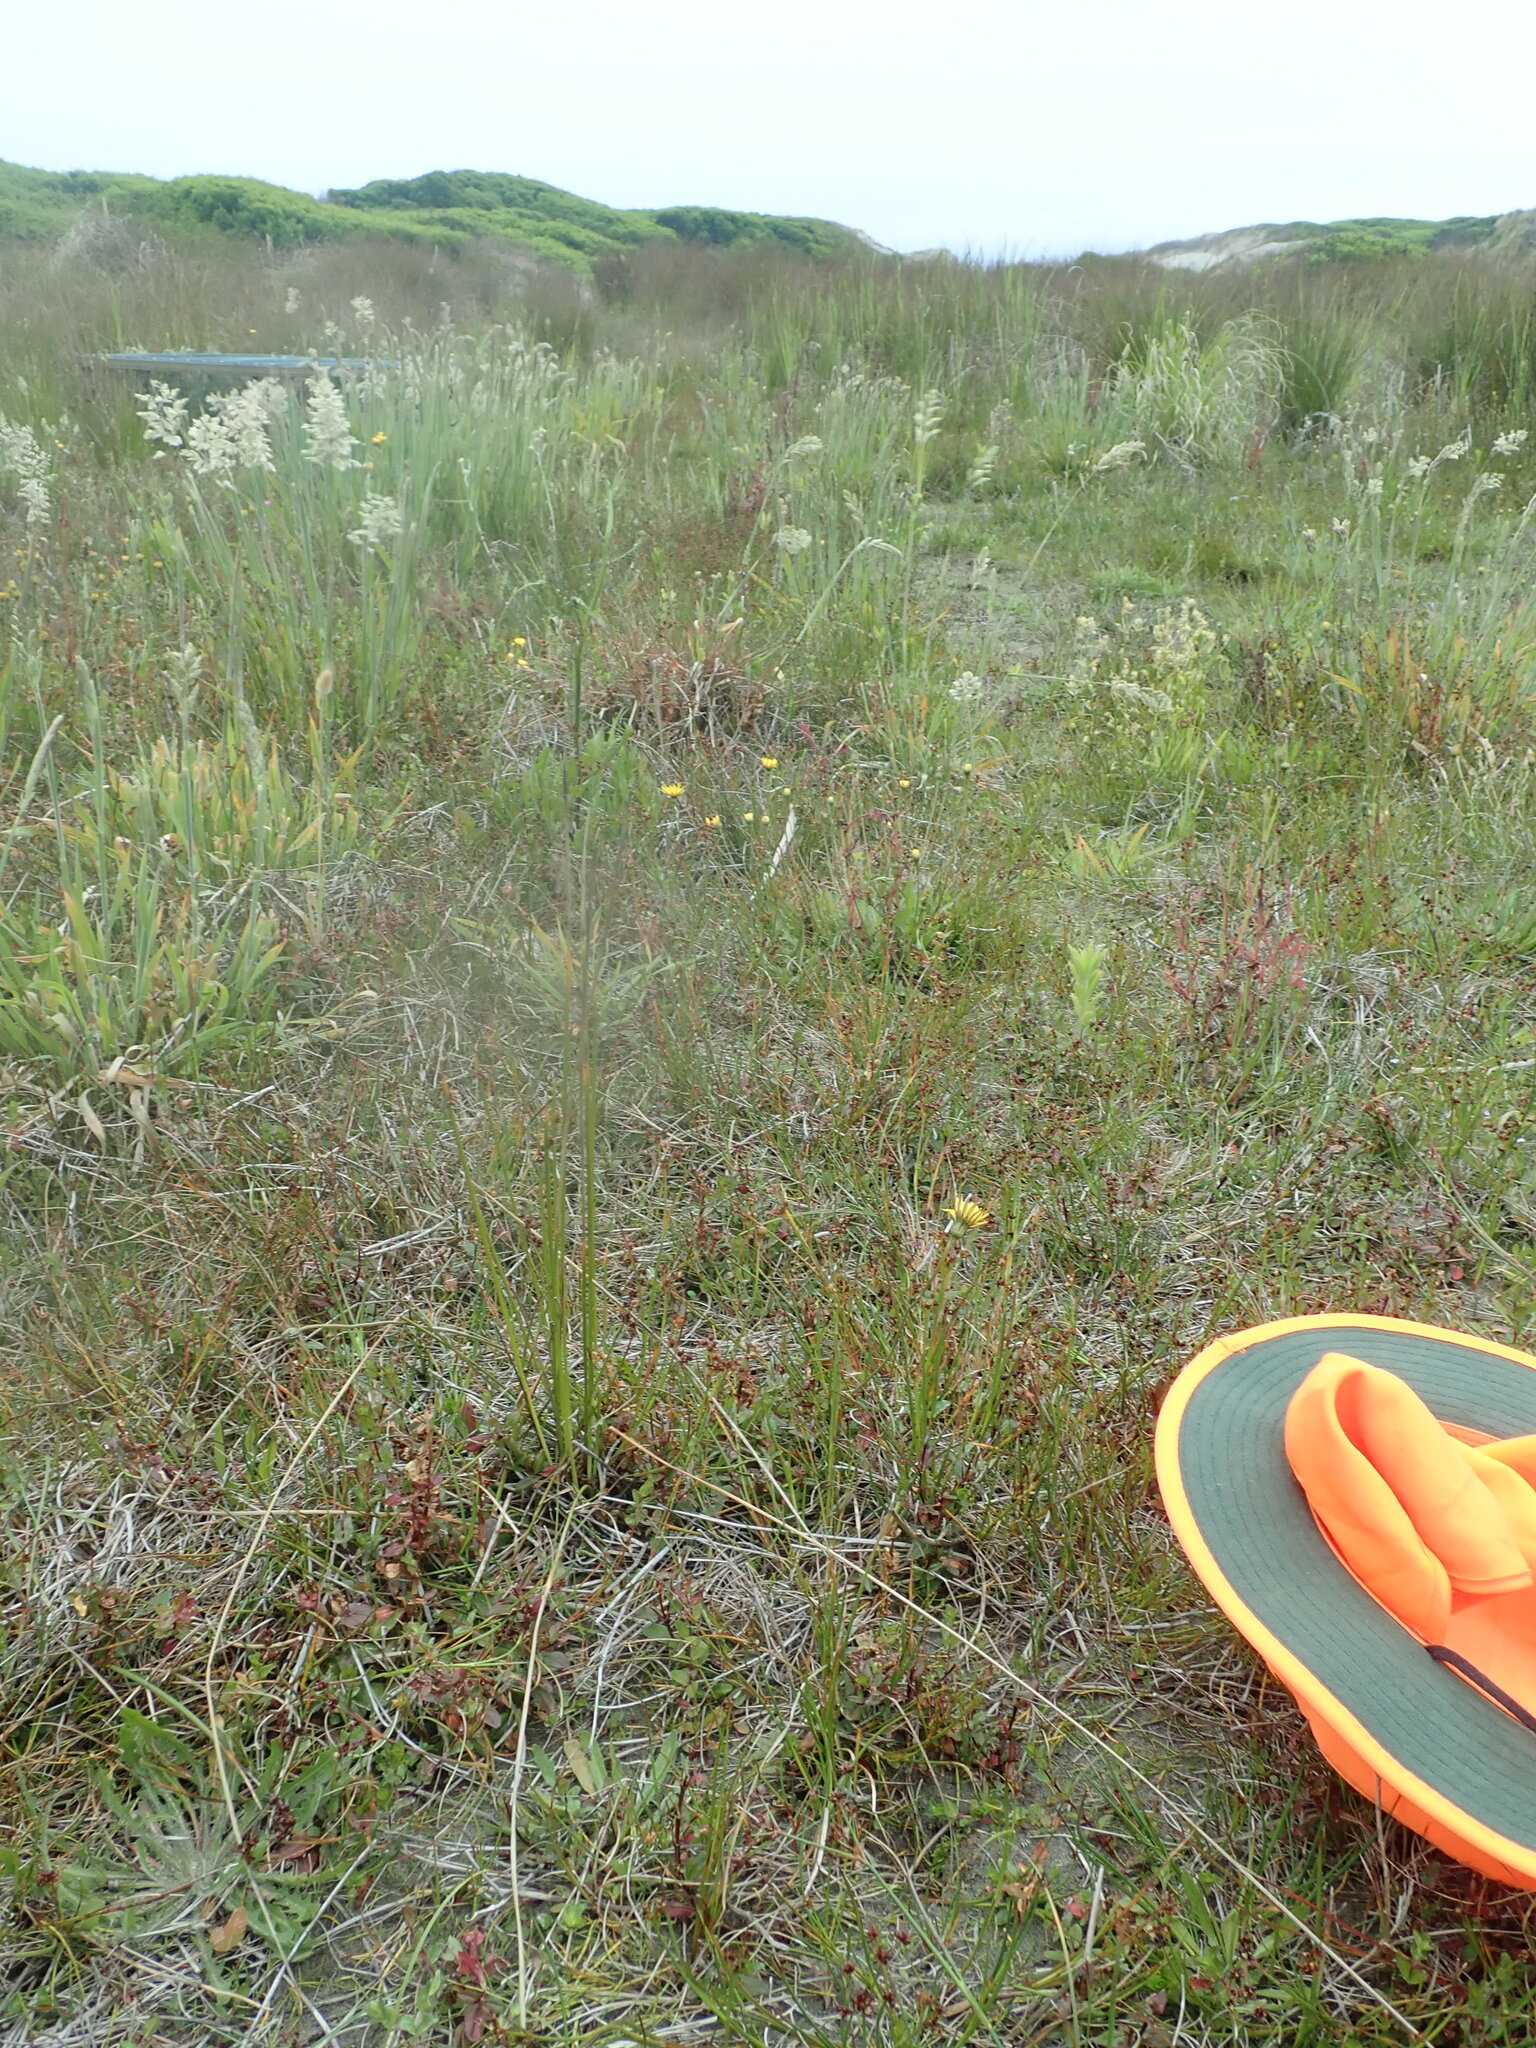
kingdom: Plantae
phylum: Tracheophyta
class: Magnoliopsida
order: Myrtales
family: Onagraceae
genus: Epilobium
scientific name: Epilobium billardiereanum
